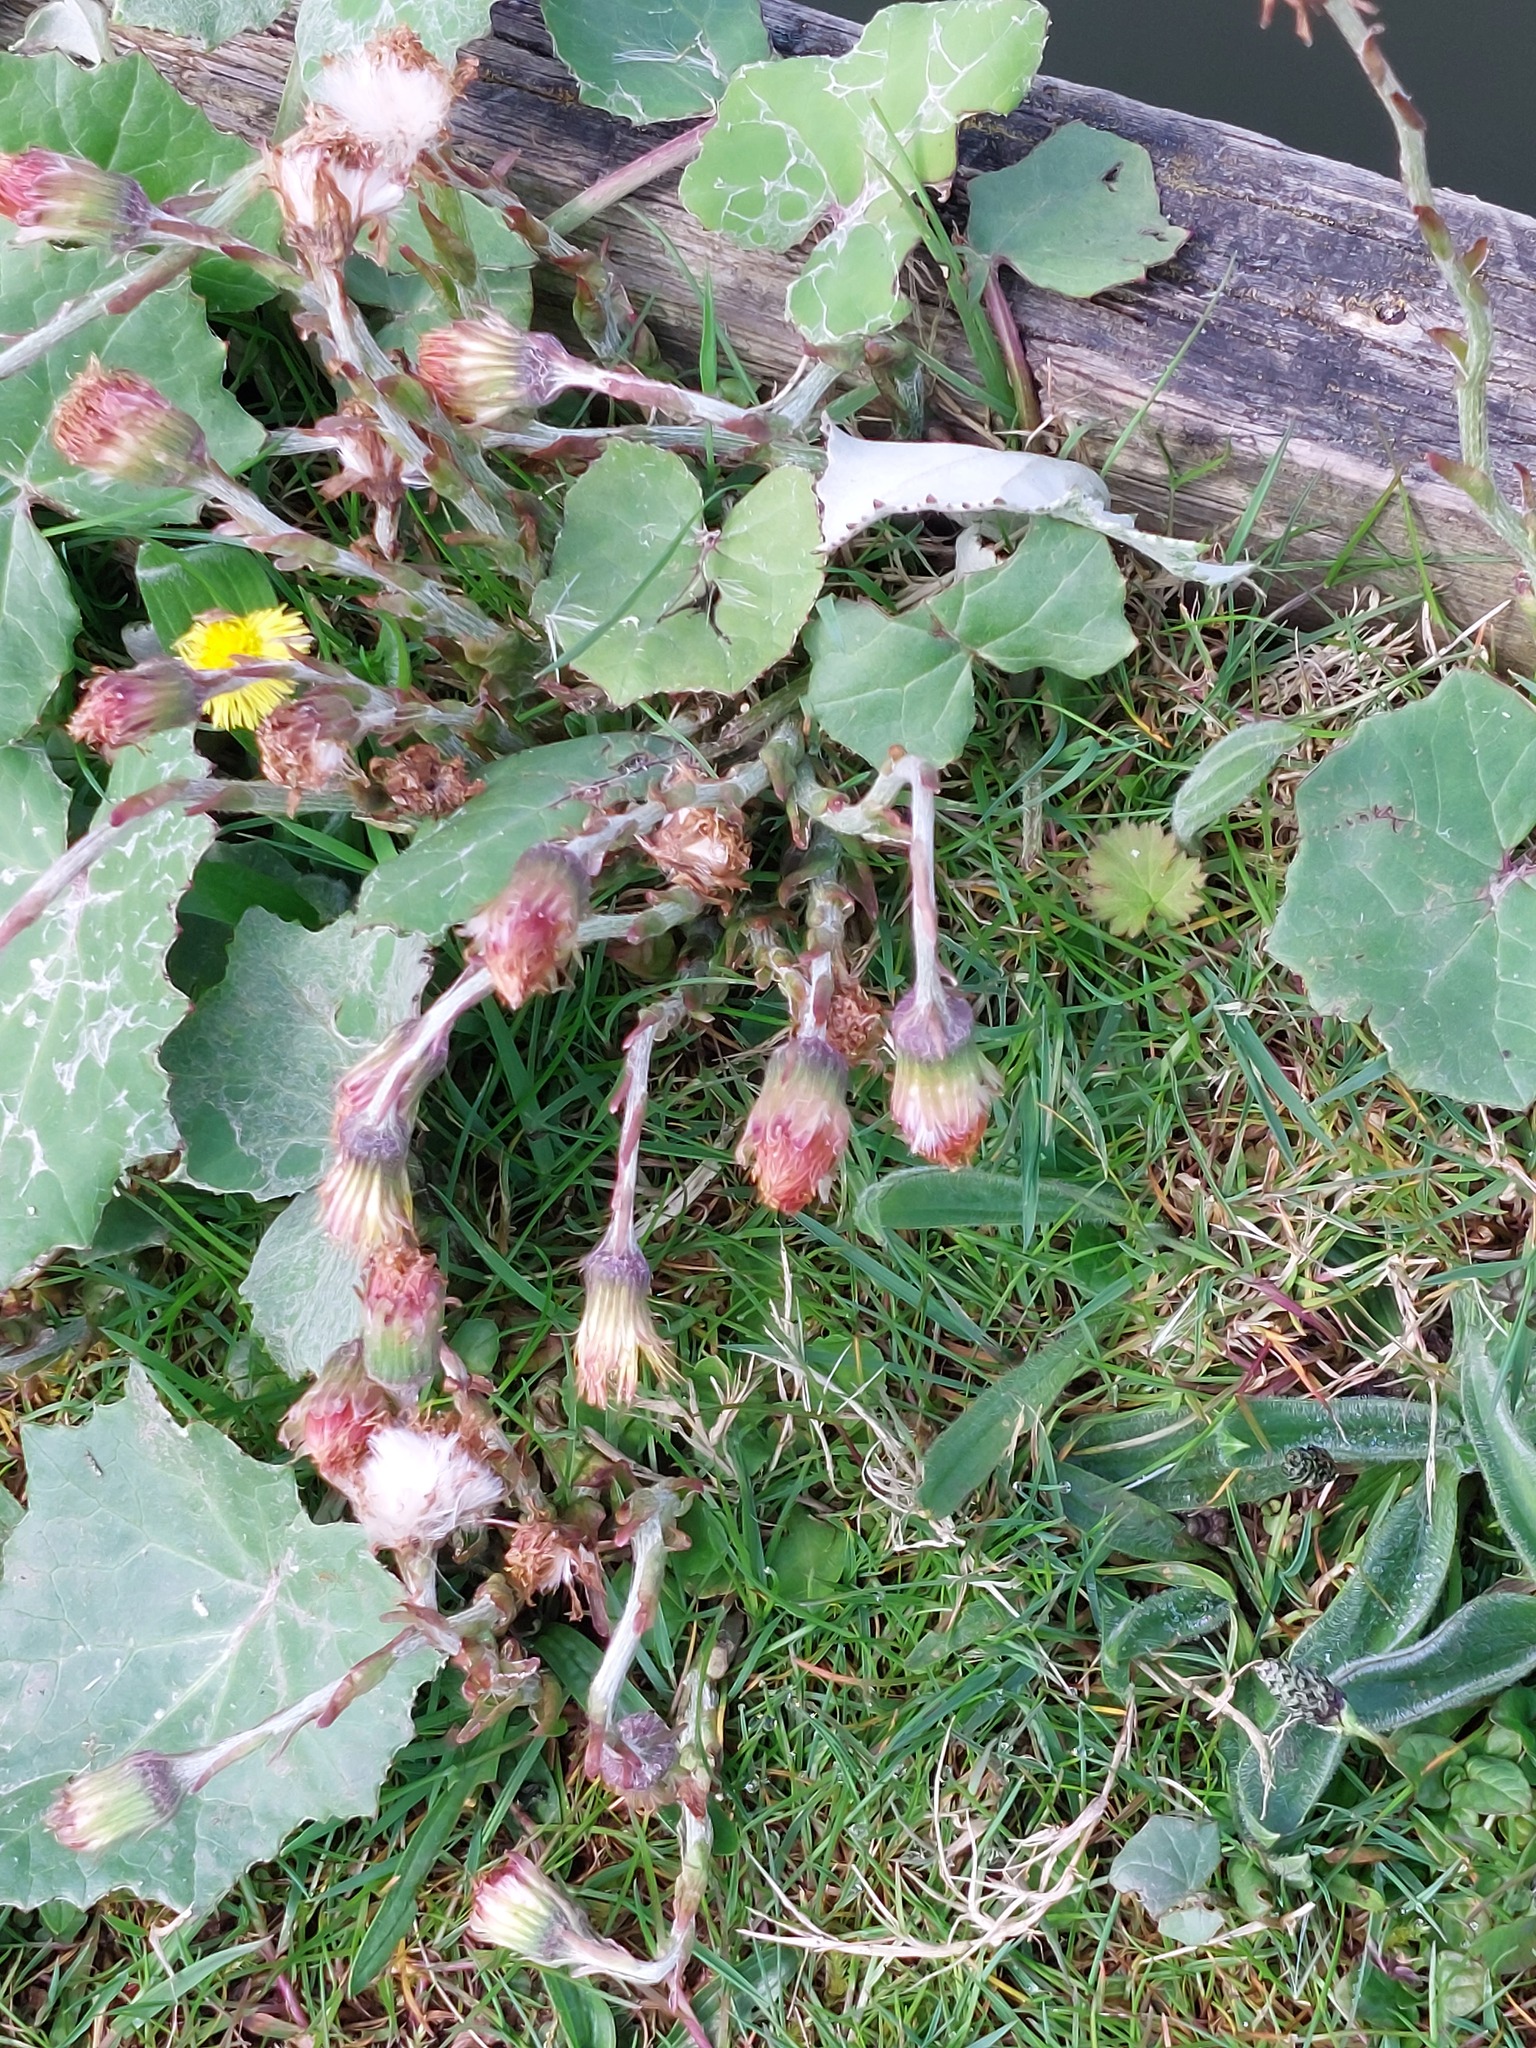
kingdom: Plantae
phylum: Tracheophyta
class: Magnoliopsida
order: Asterales
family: Asteraceae
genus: Tussilago
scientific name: Tussilago farfara
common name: Coltsfoot
